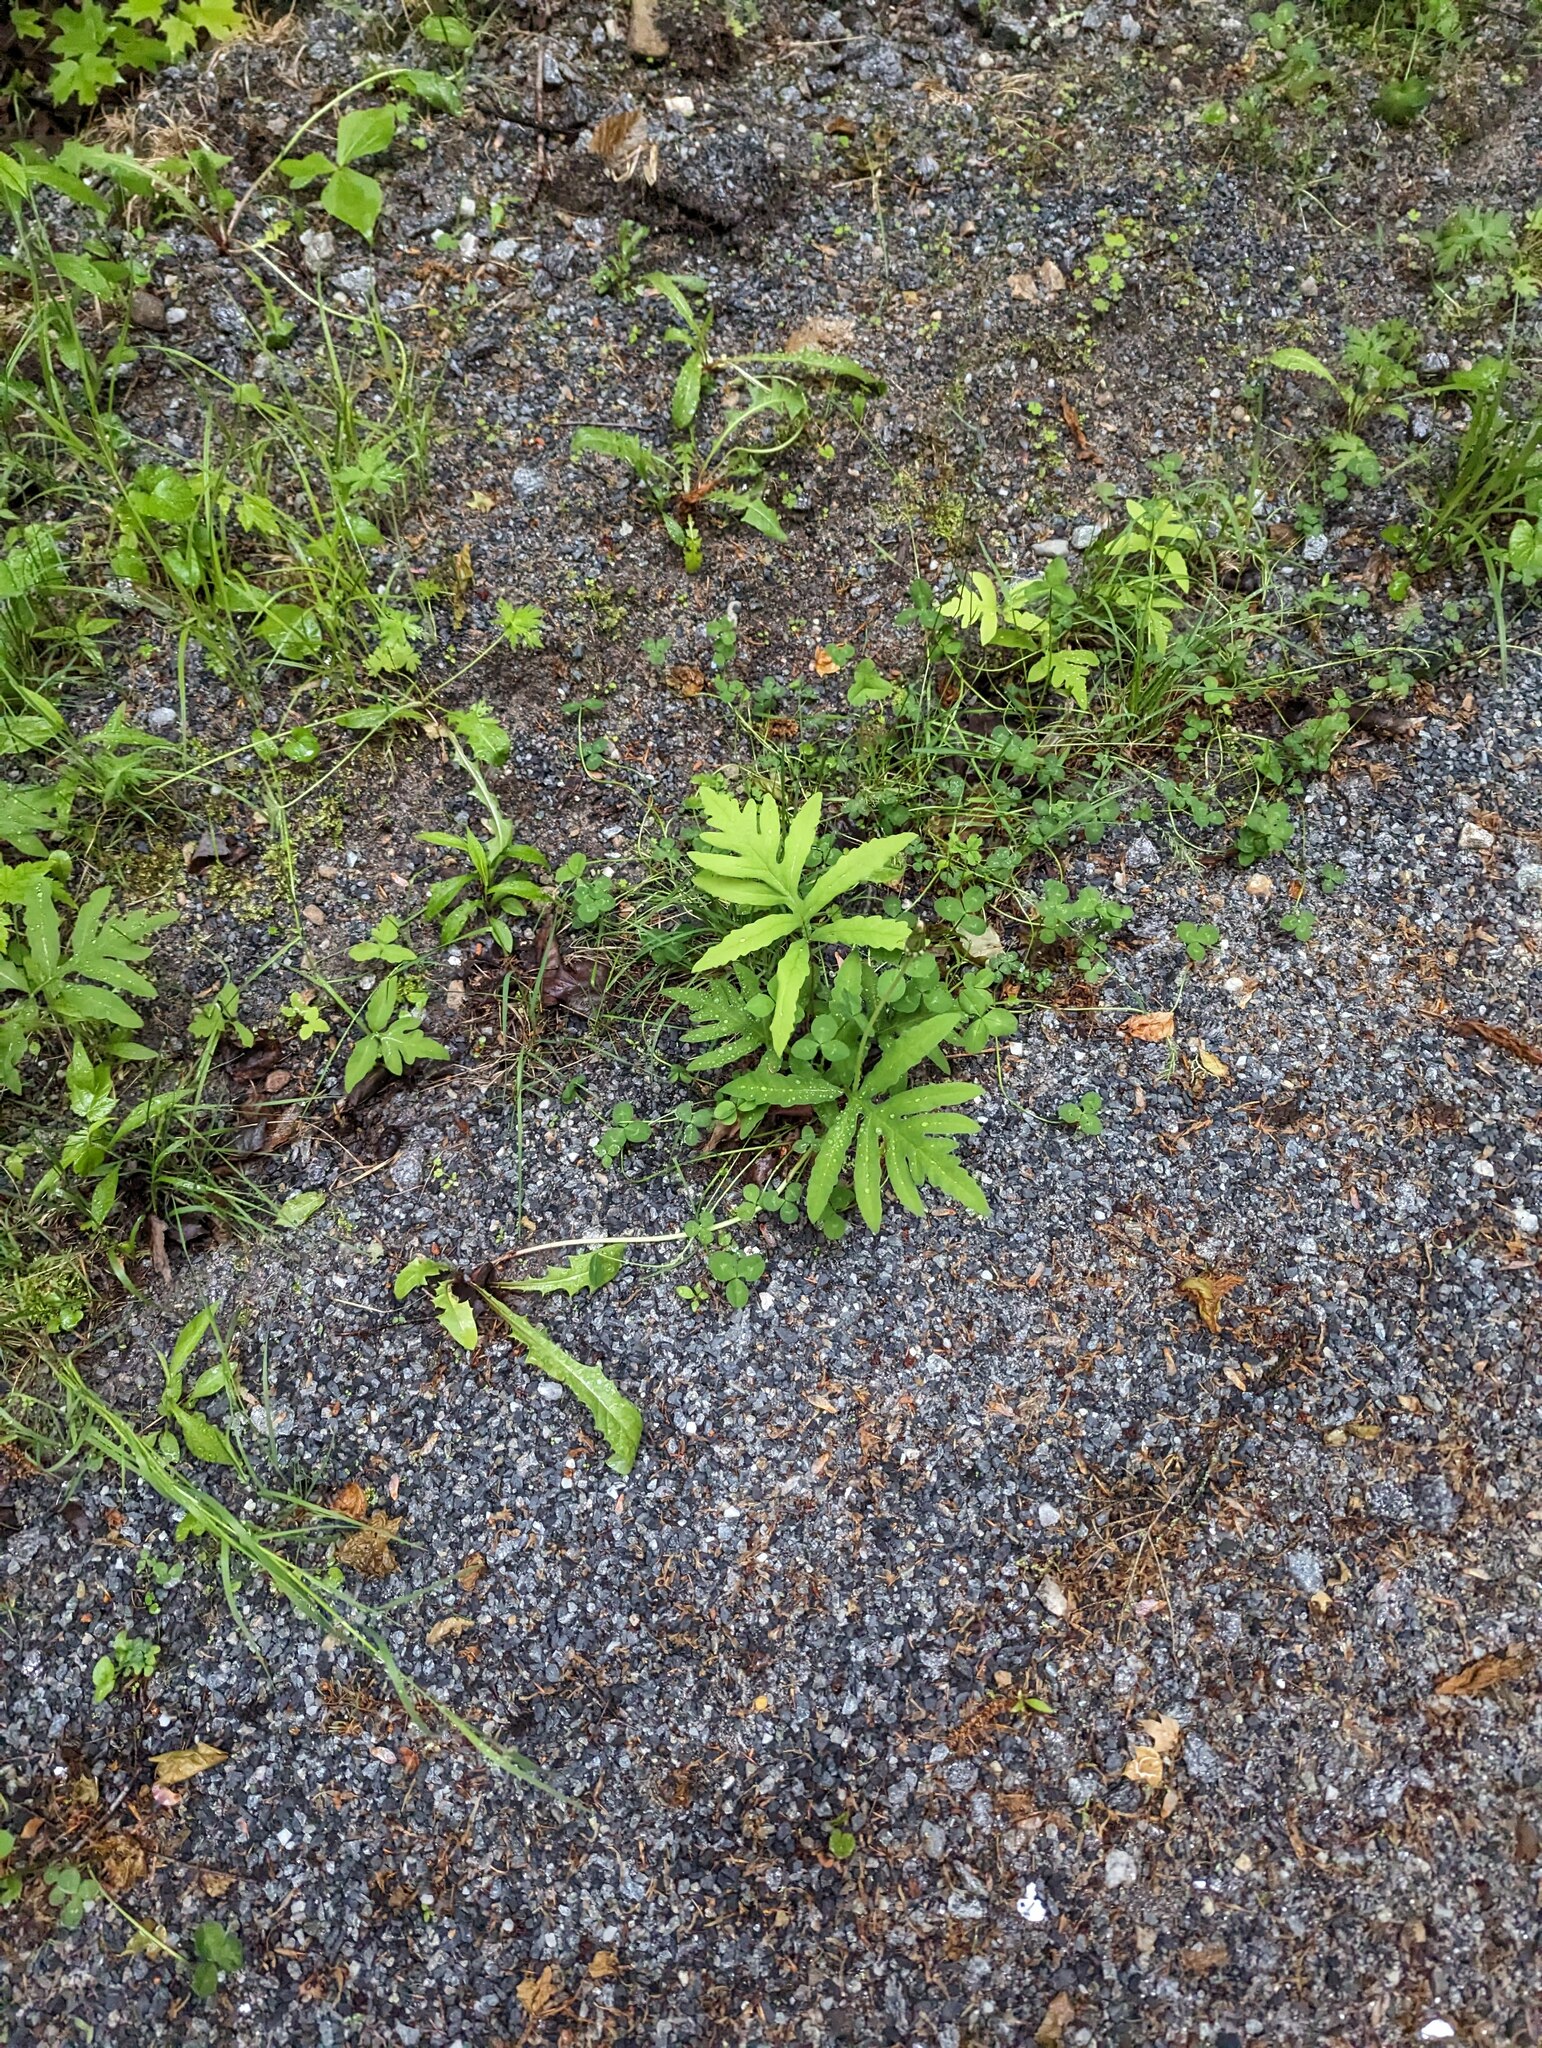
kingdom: Plantae
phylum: Tracheophyta
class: Polypodiopsida
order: Polypodiales
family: Onocleaceae
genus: Onoclea
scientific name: Onoclea sensibilis
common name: Sensitive fern
